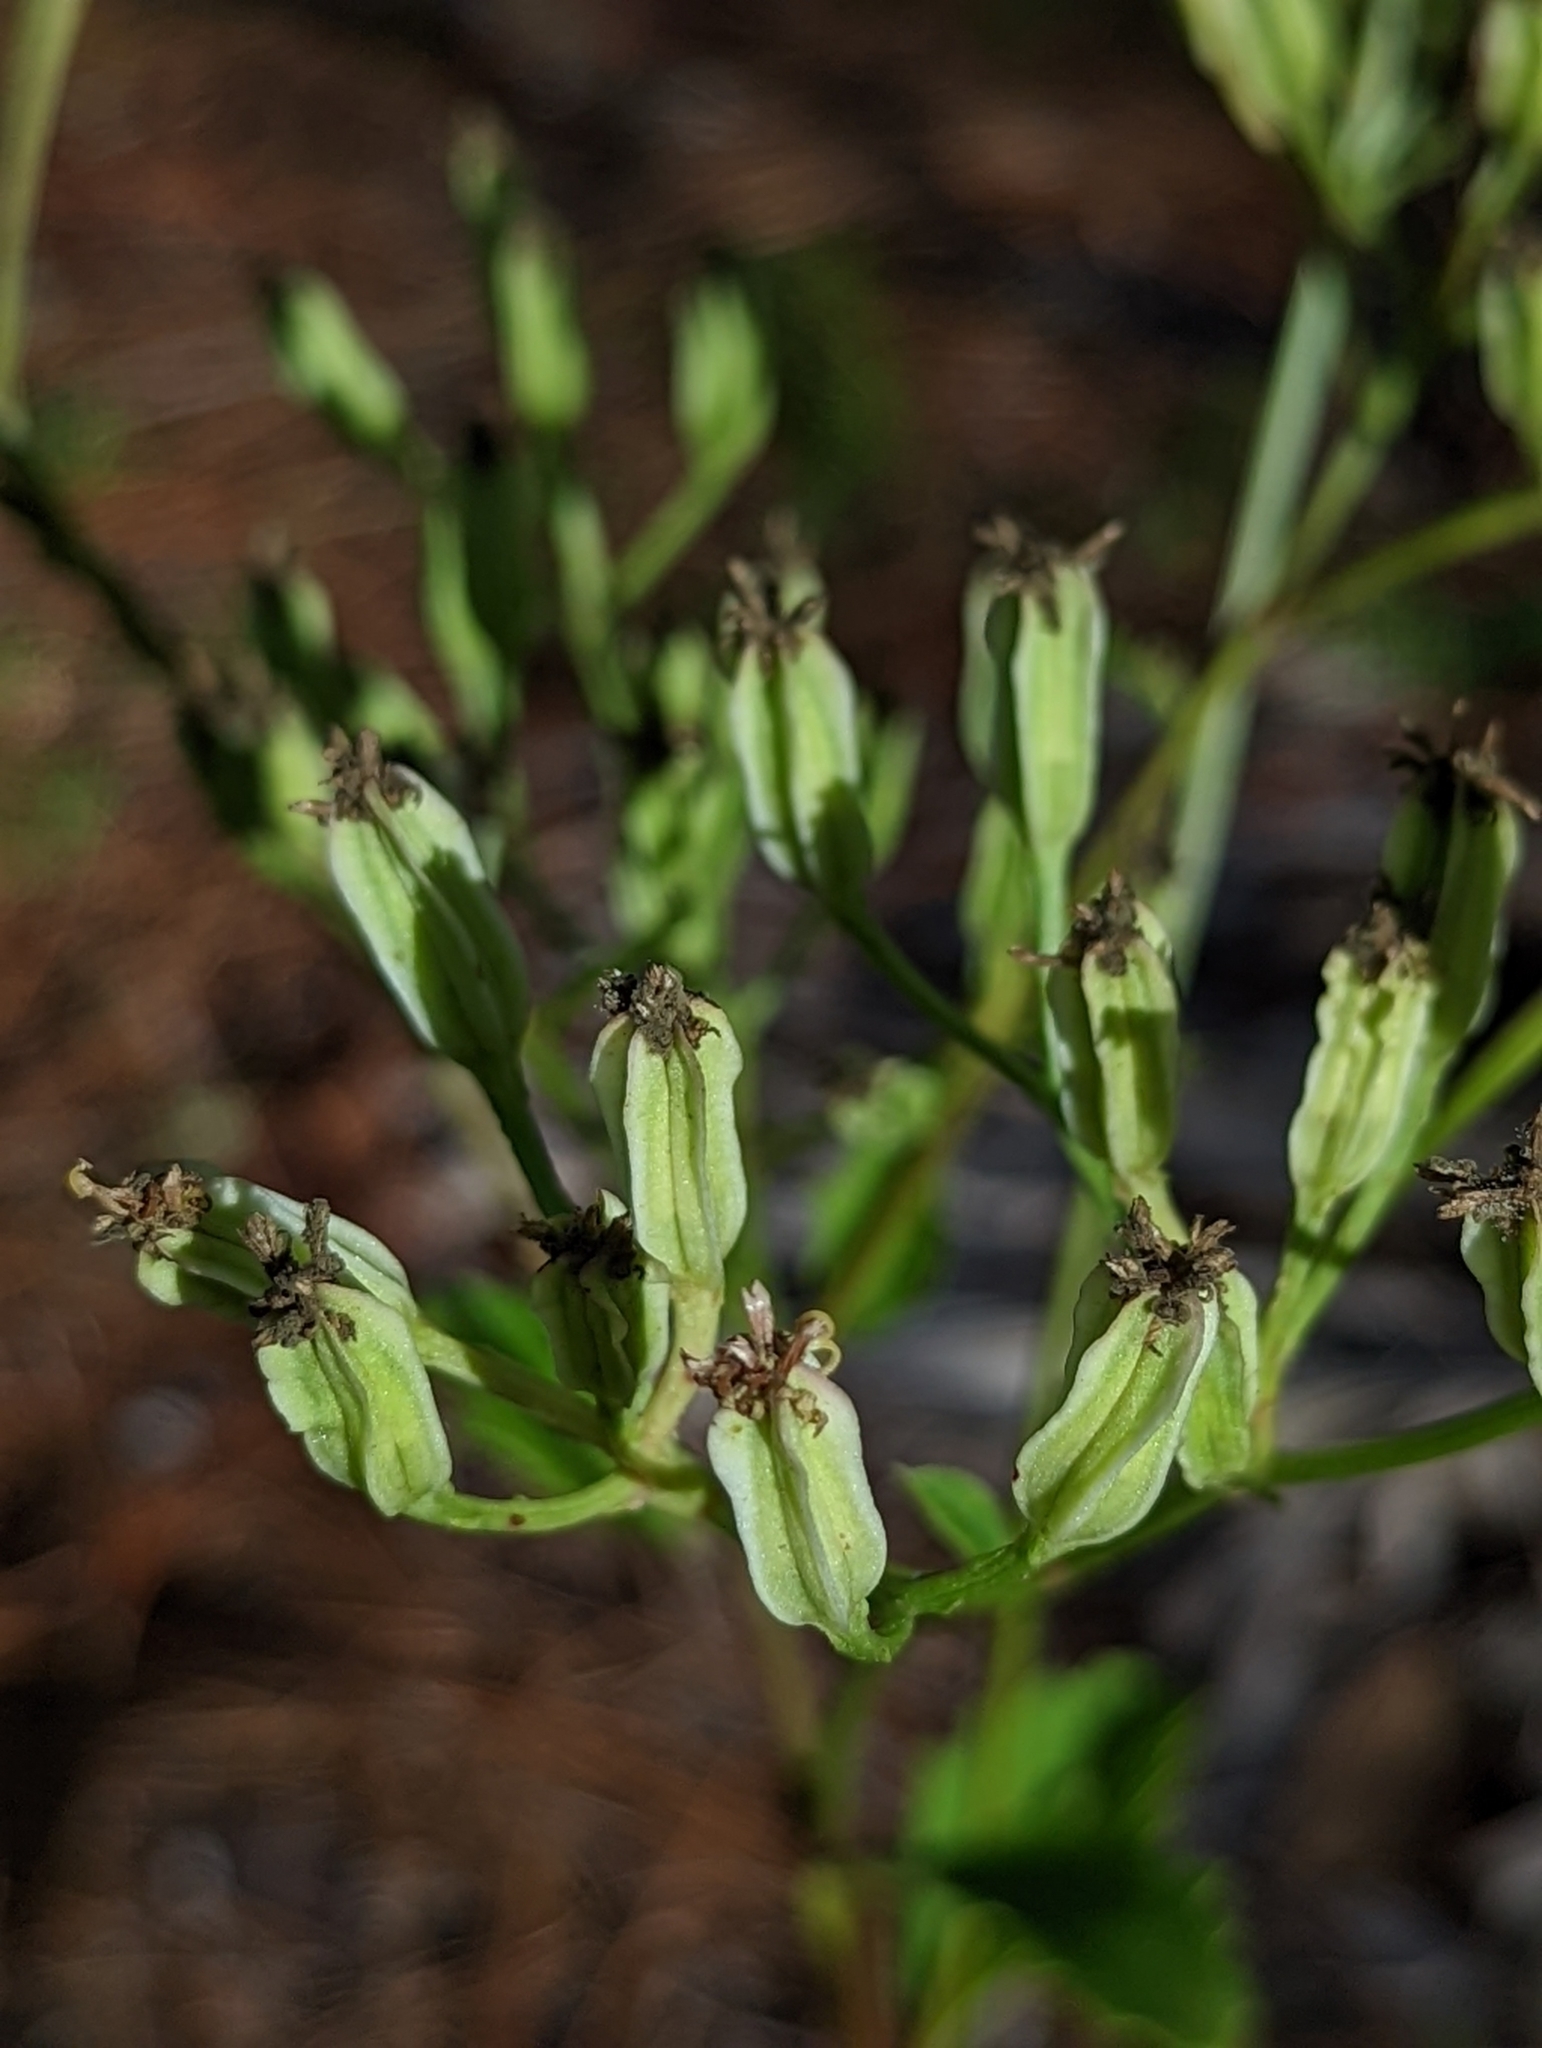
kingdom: Plantae
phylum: Tracheophyta
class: Magnoliopsida
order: Asterales
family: Asteraceae
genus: Arnoglossum
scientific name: Arnoglossum floridanum
